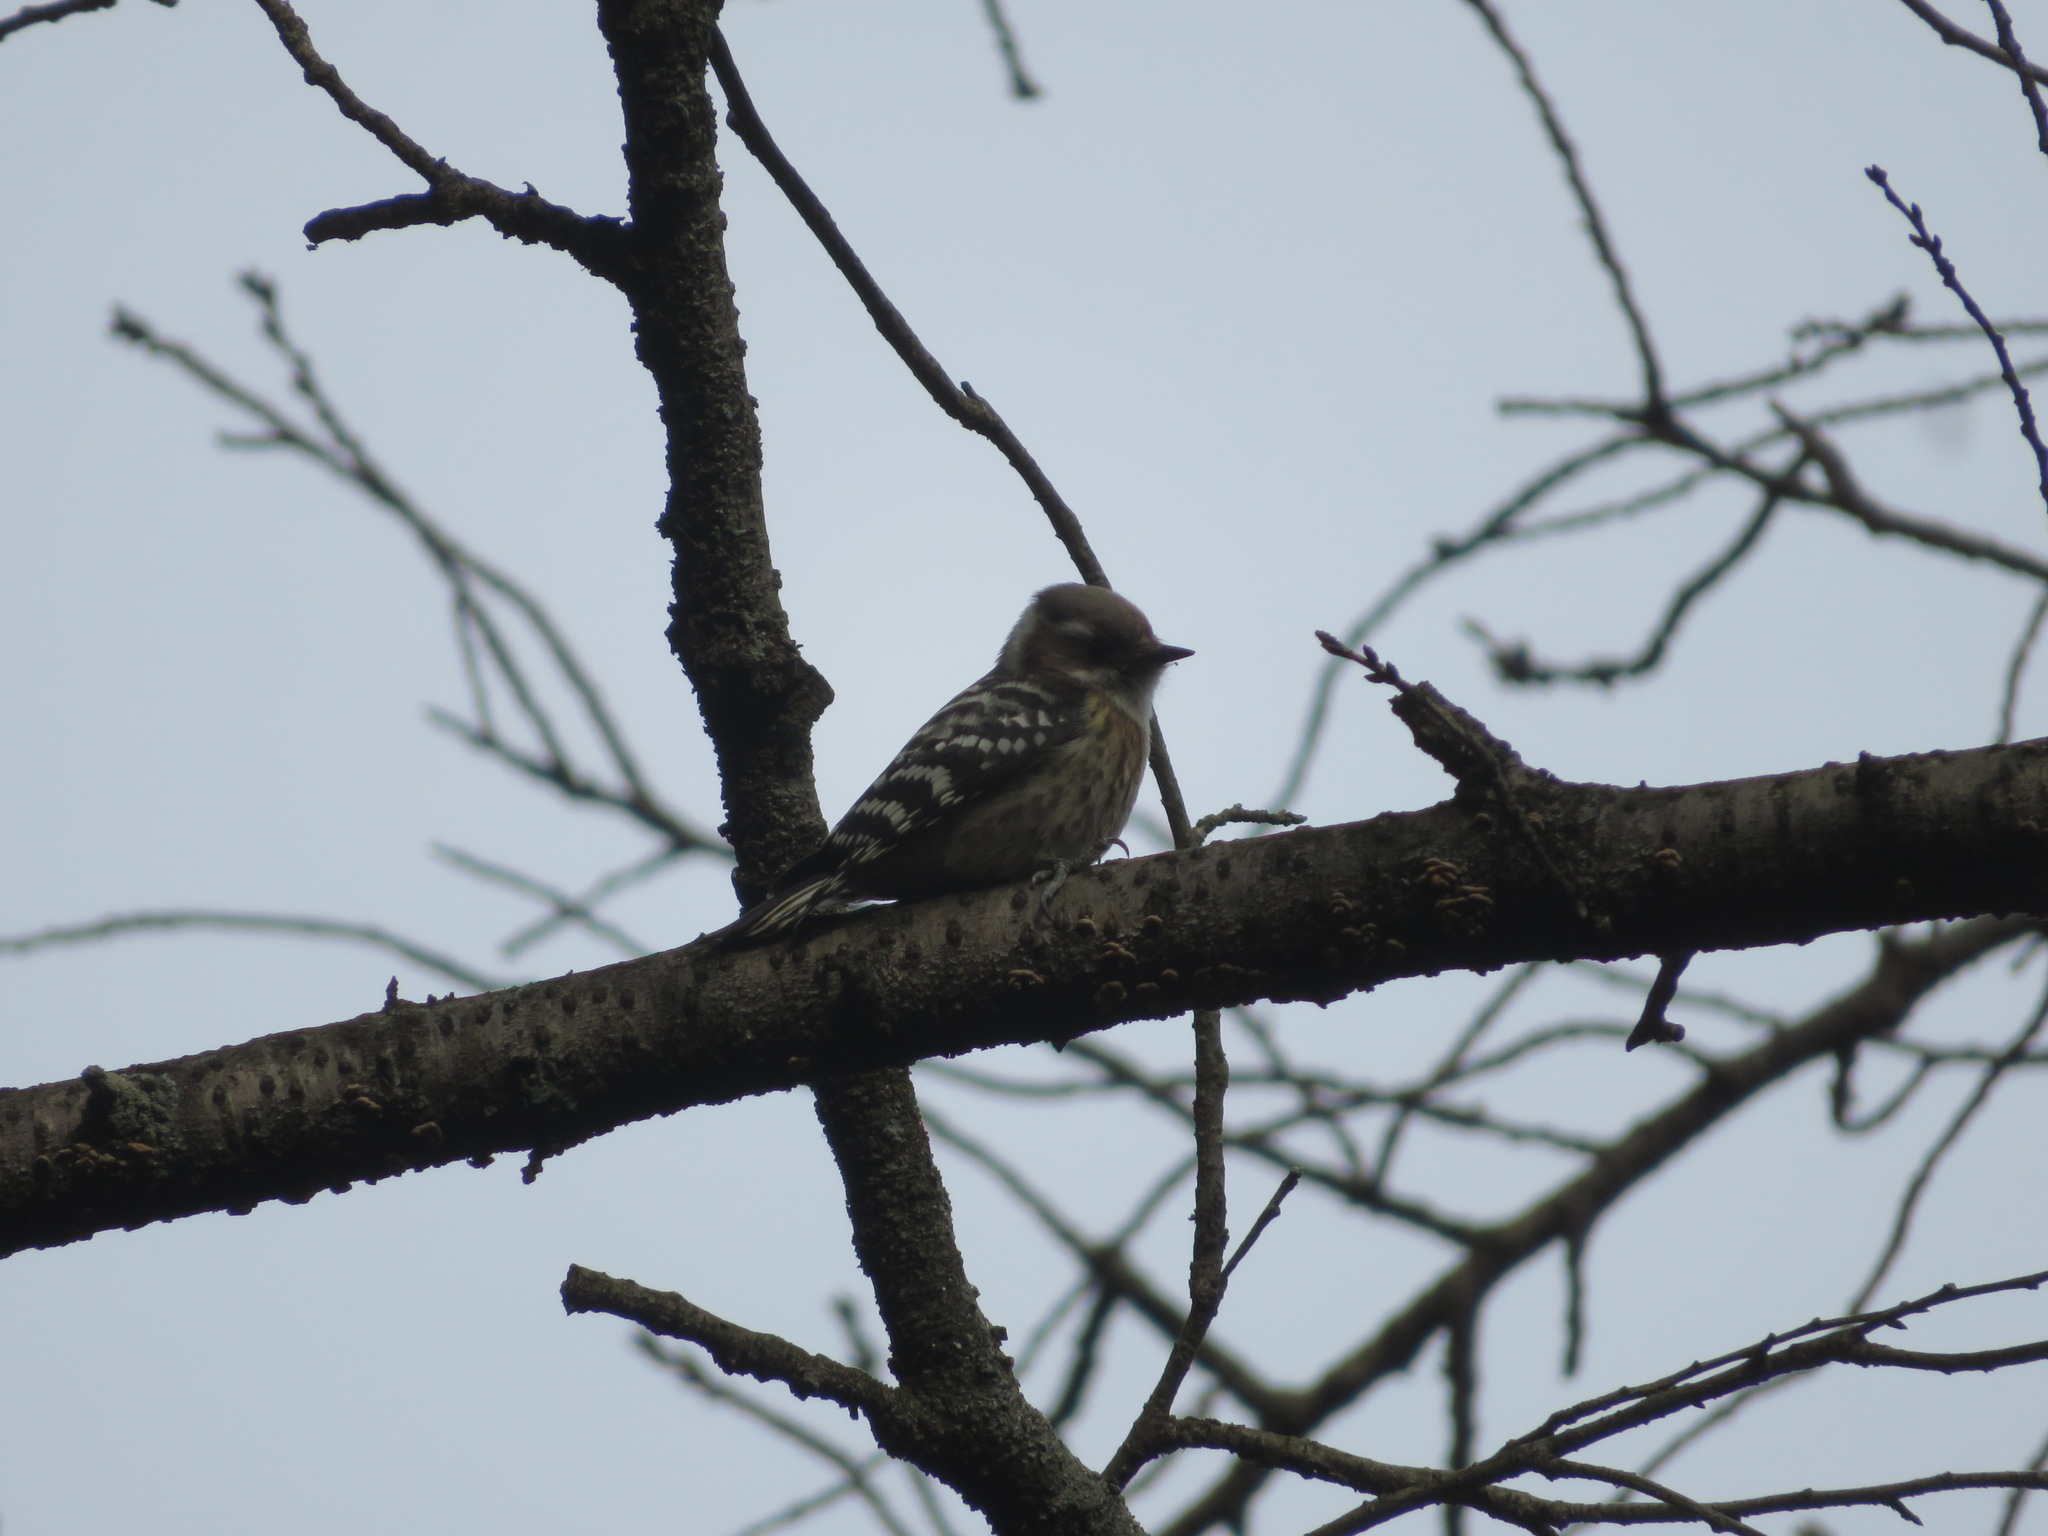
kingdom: Animalia
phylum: Chordata
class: Aves
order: Piciformes
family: Picidae
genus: Yungipicus
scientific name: Yungipicus kizuki
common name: Japanese pygmy woodpecker
